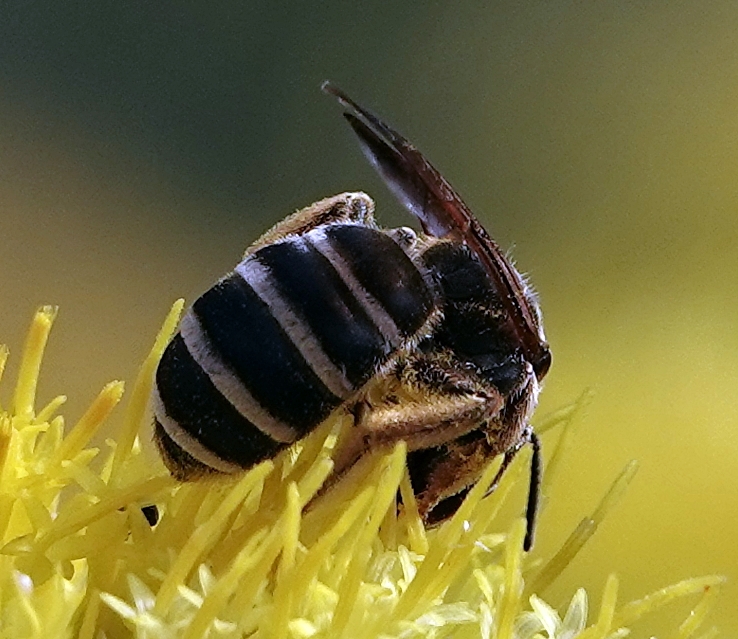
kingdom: Animalia
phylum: Arthropoda
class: Insecta
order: Hymenoptera
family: Halictidae
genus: Halictus
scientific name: Halictus farinosus
